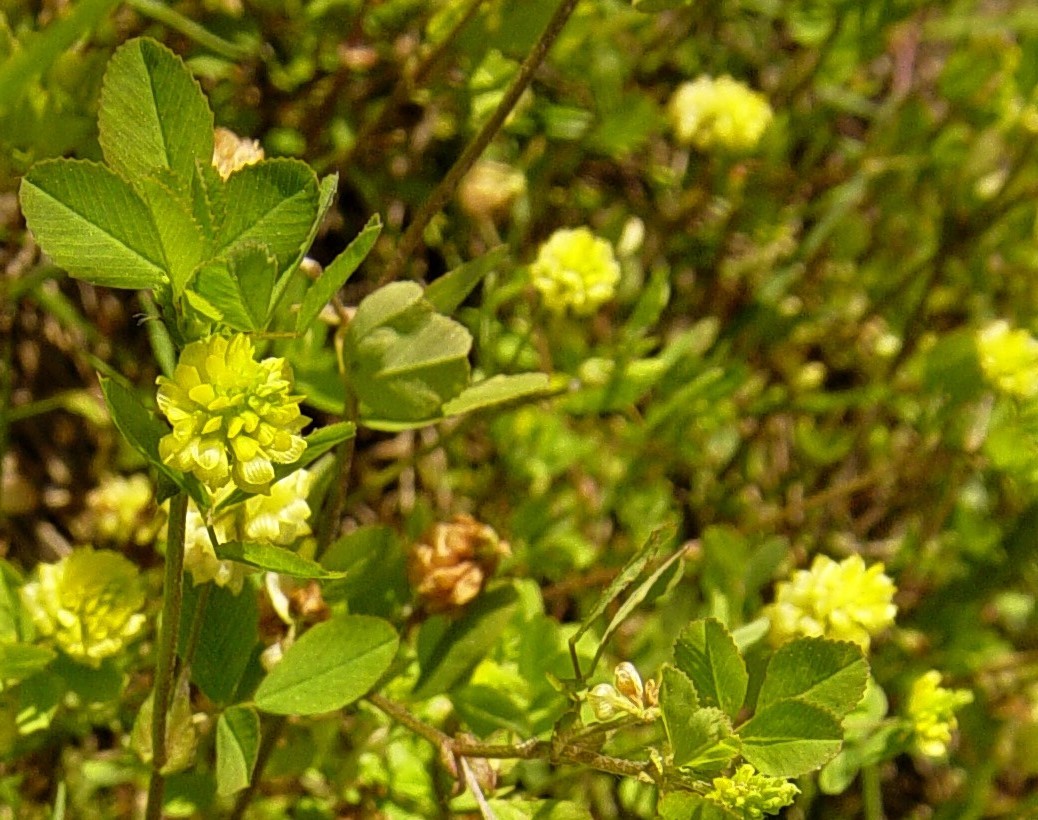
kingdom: Plantae
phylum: Tracheophyta
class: Magnoliopsida
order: Fabales
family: Fabaceae
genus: Trifolium
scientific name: Trifolium campestre
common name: Field clover
